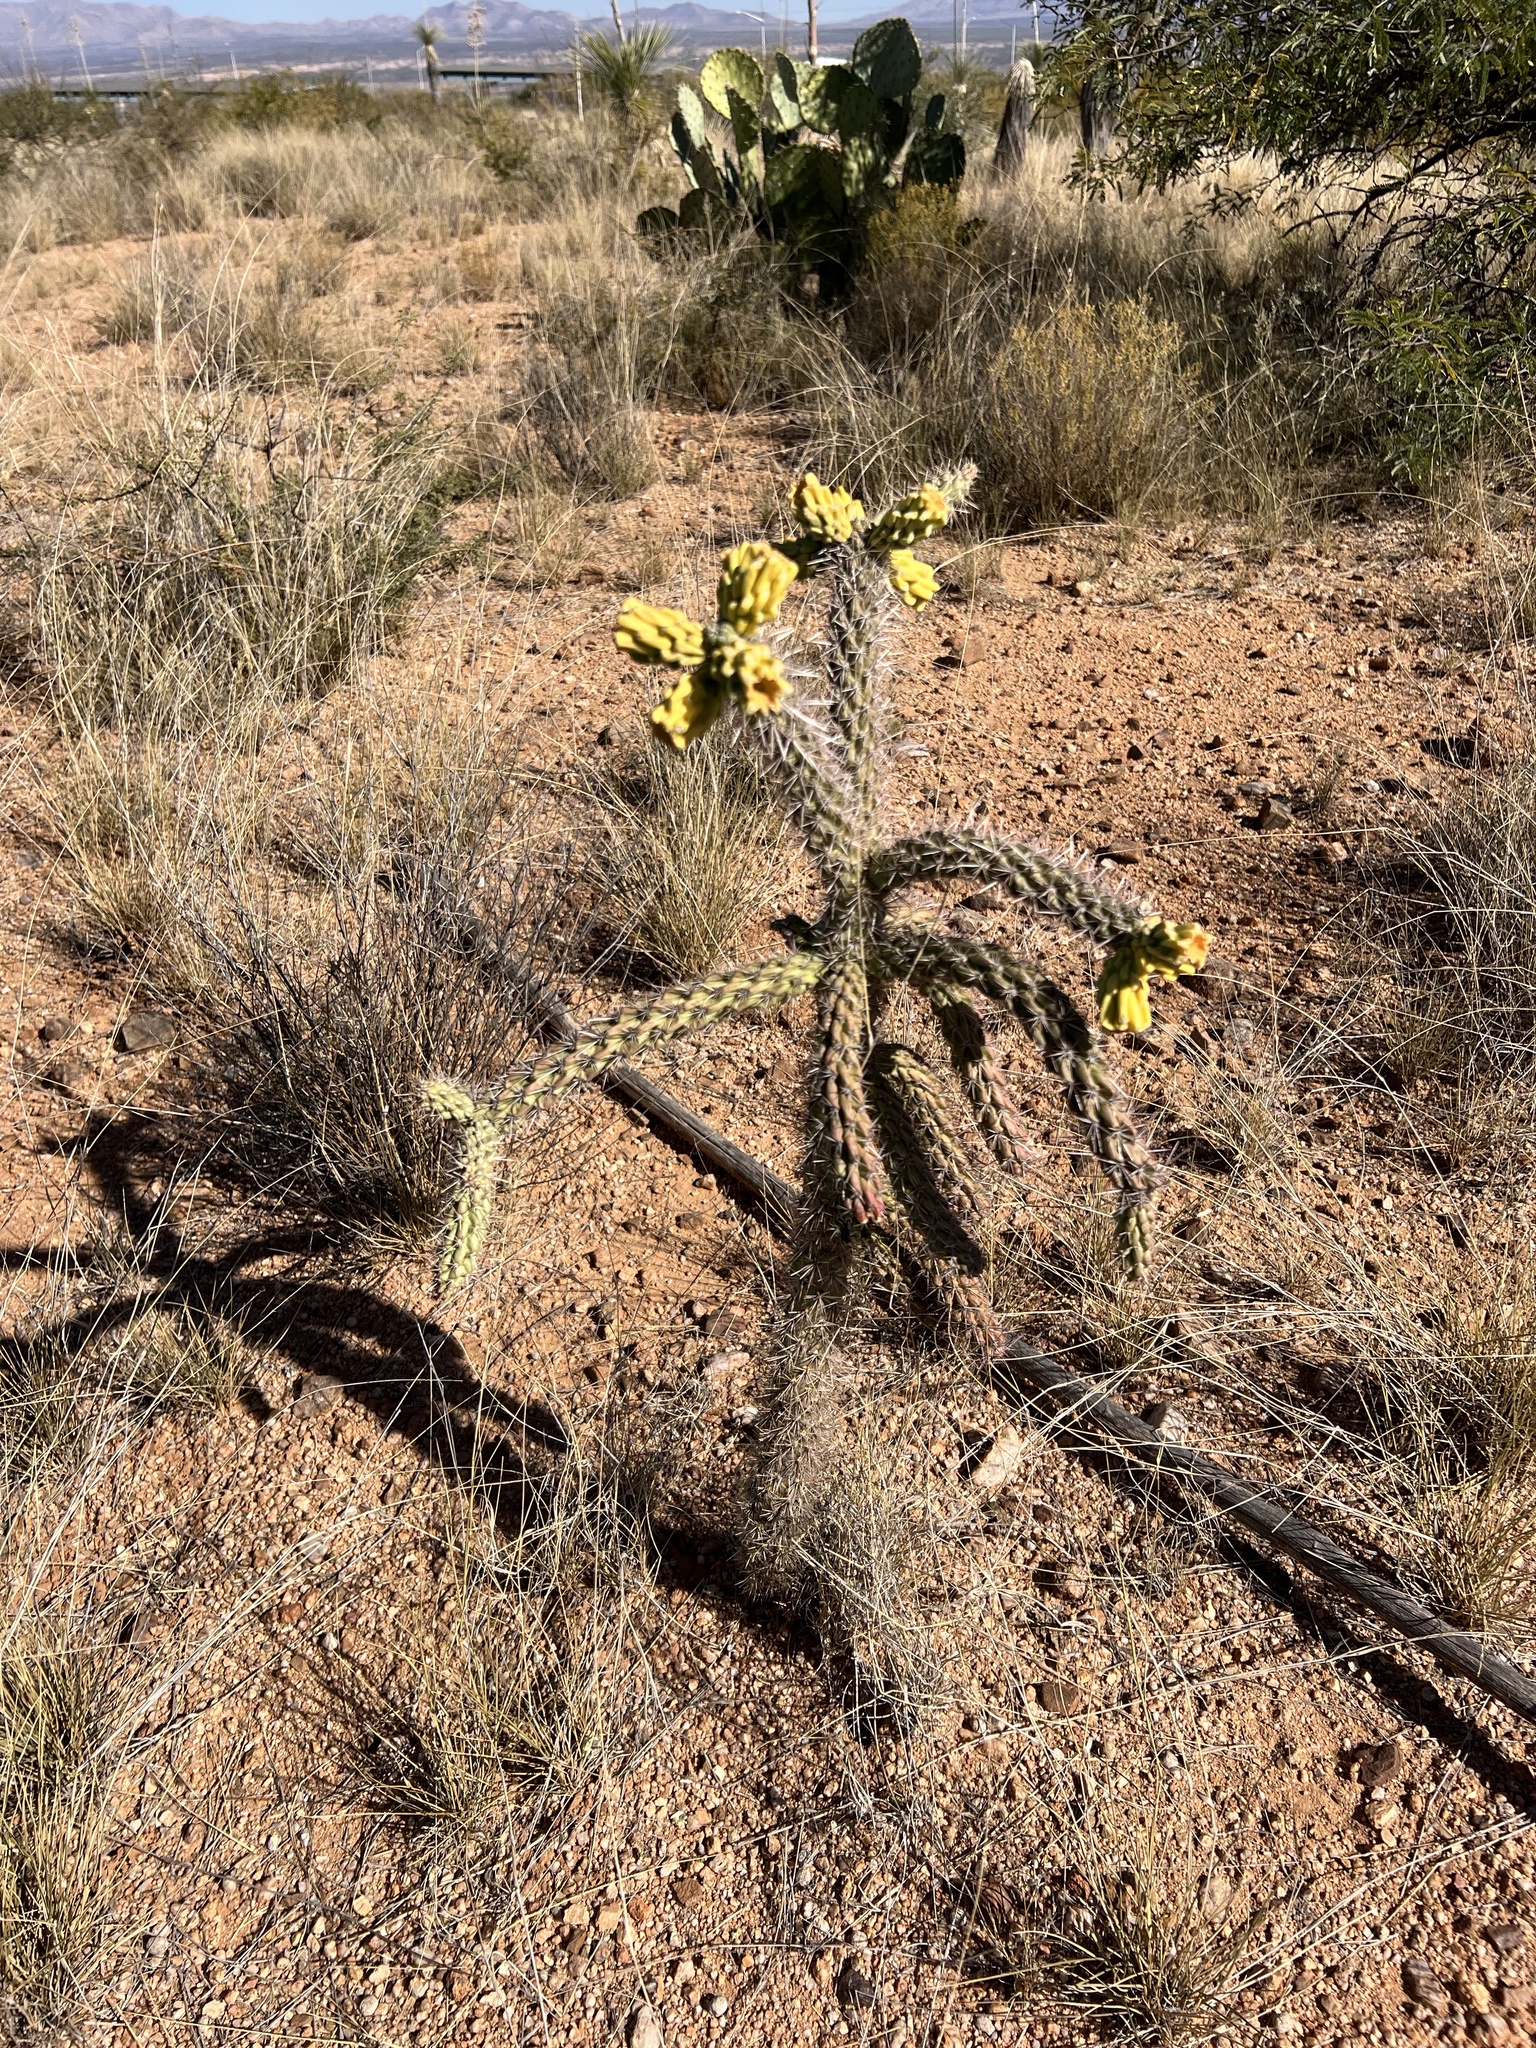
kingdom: Plantae
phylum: Tracheophyta
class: Magnoliopsida
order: Caryophyllales
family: Cactaceae
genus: Cylindropuntia
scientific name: Cylindropuntia imbricata
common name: Candelabrum cactus
